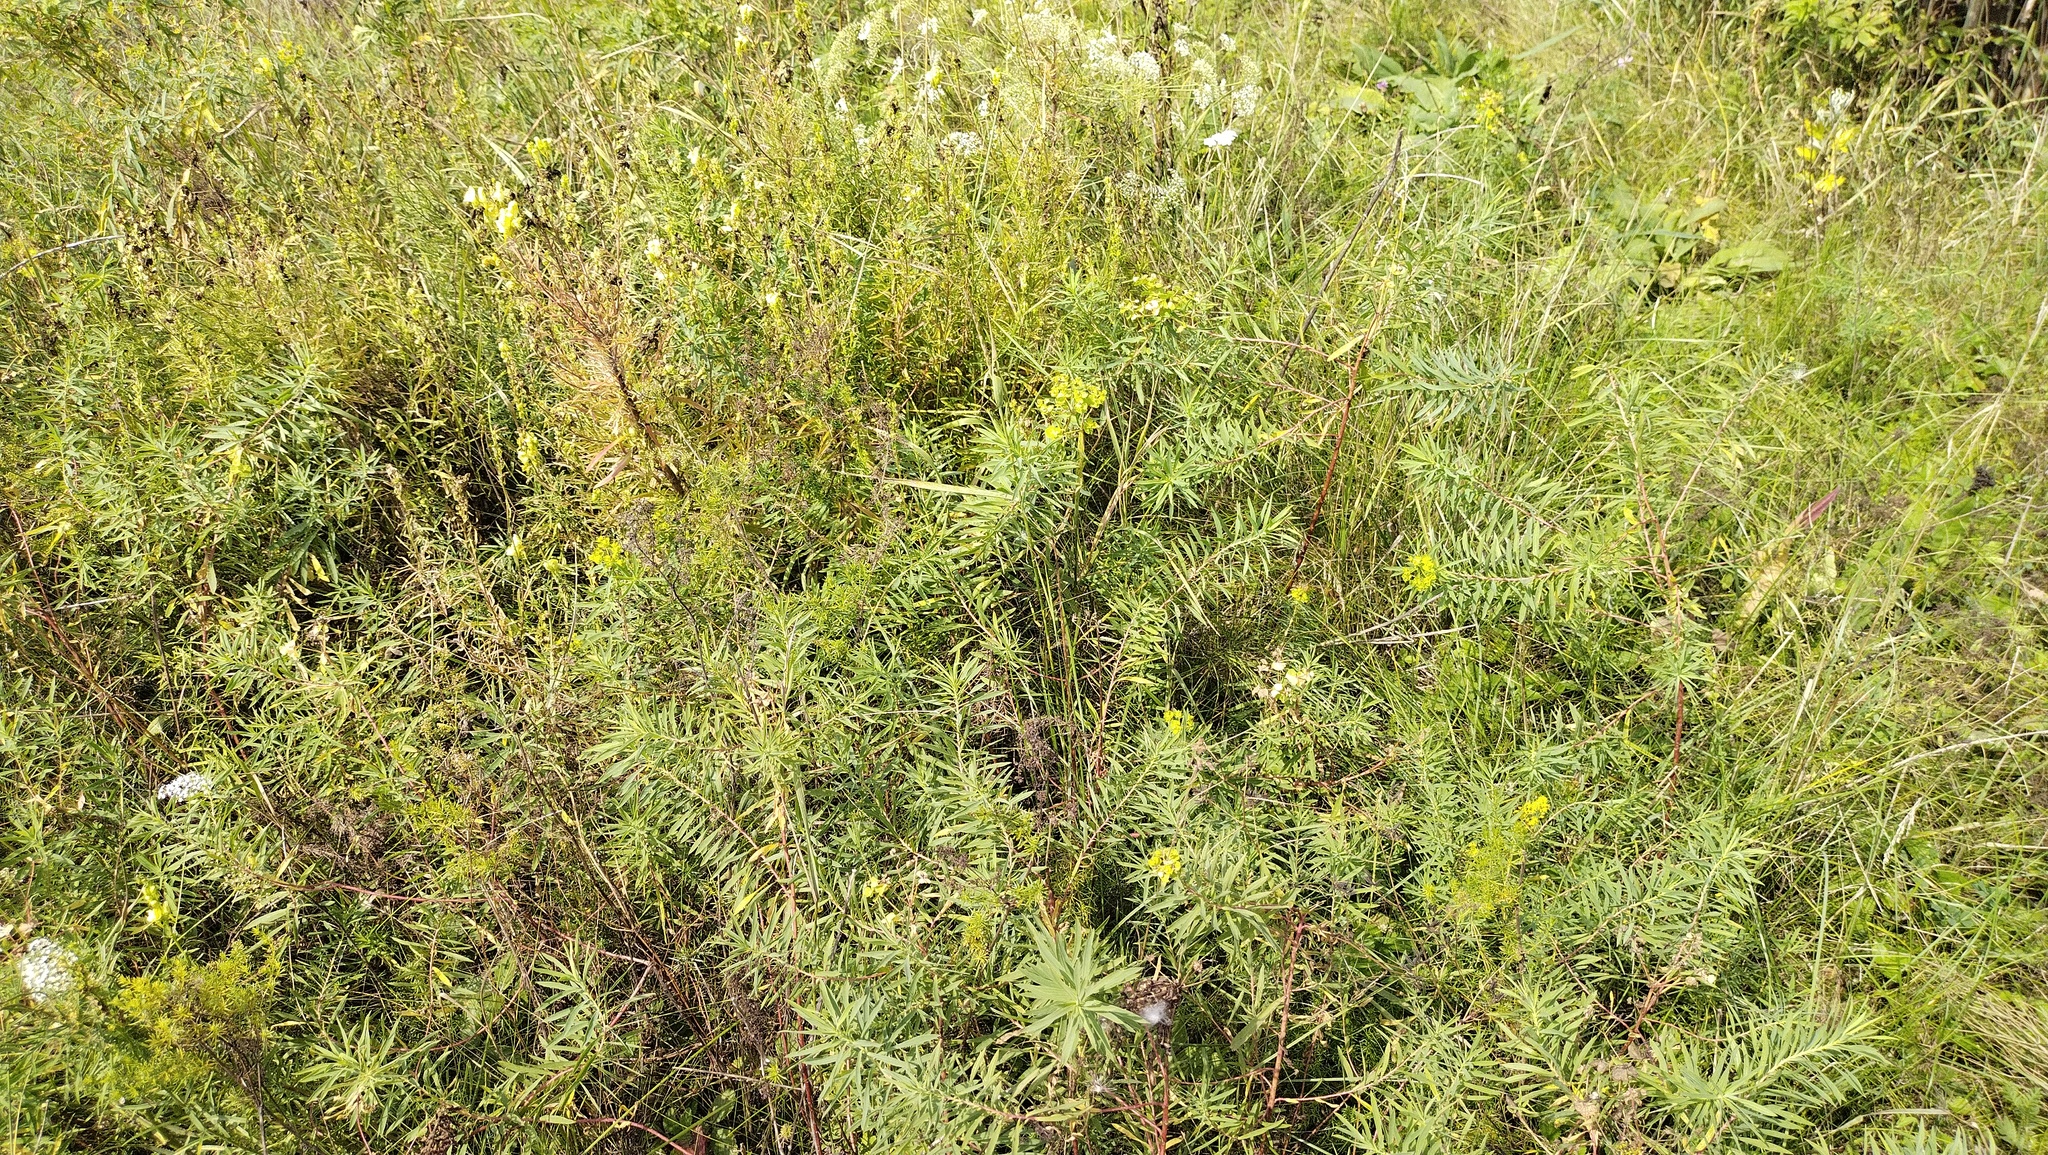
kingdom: Plantae
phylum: Tracheophyta
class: Magnoliopsida
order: Malpighiales
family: Euphorbiaceae
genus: Euphorbia
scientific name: Euphorbia virgata
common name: Leafy spurge
